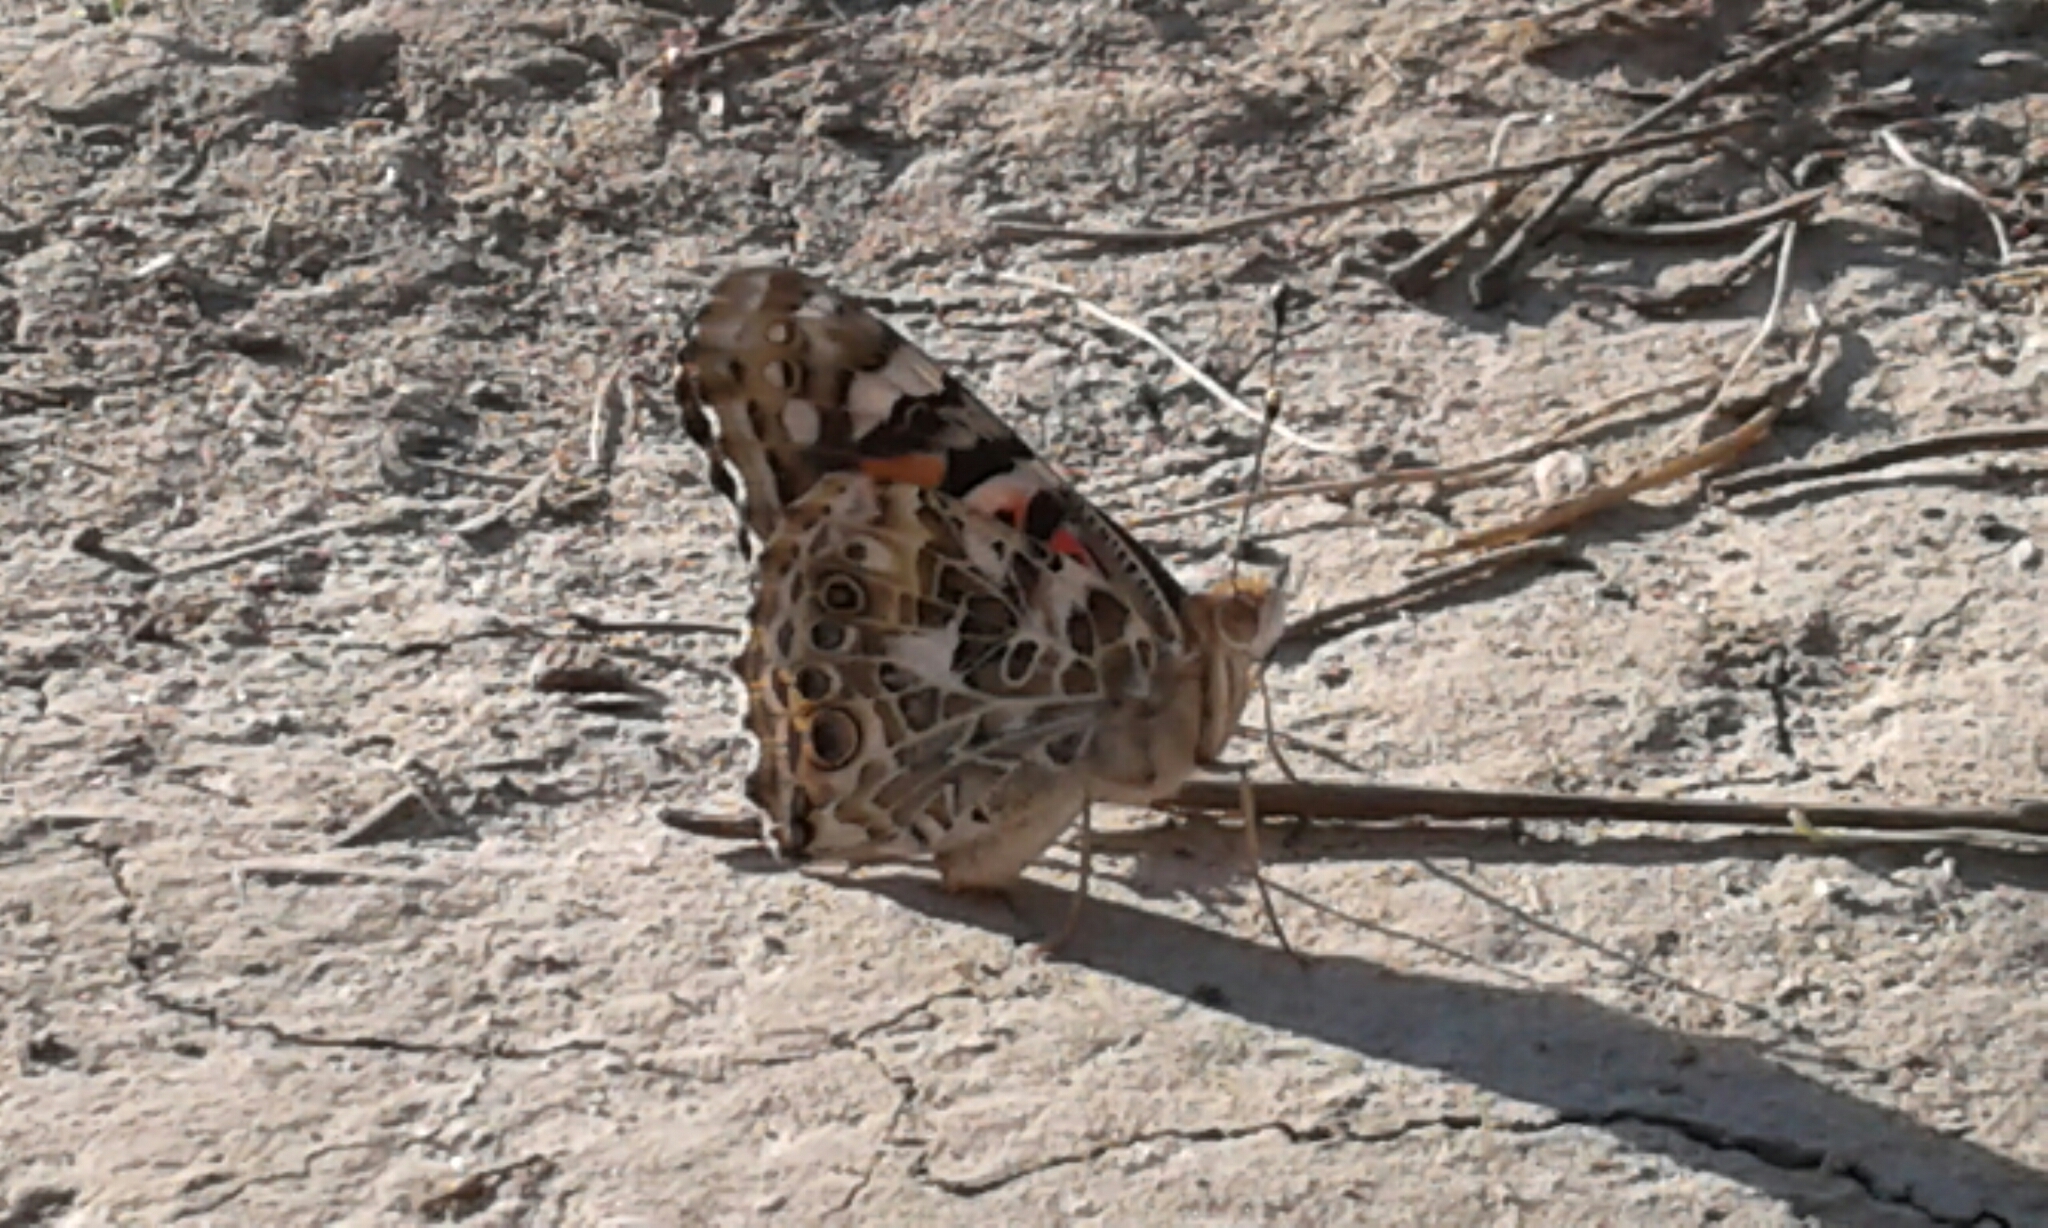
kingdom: Animalia
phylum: Arthropoda
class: Insecta
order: Lepidoptera
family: Nymphalidae
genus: Vanessa
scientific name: Vanessa cardui
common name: Painted lady
